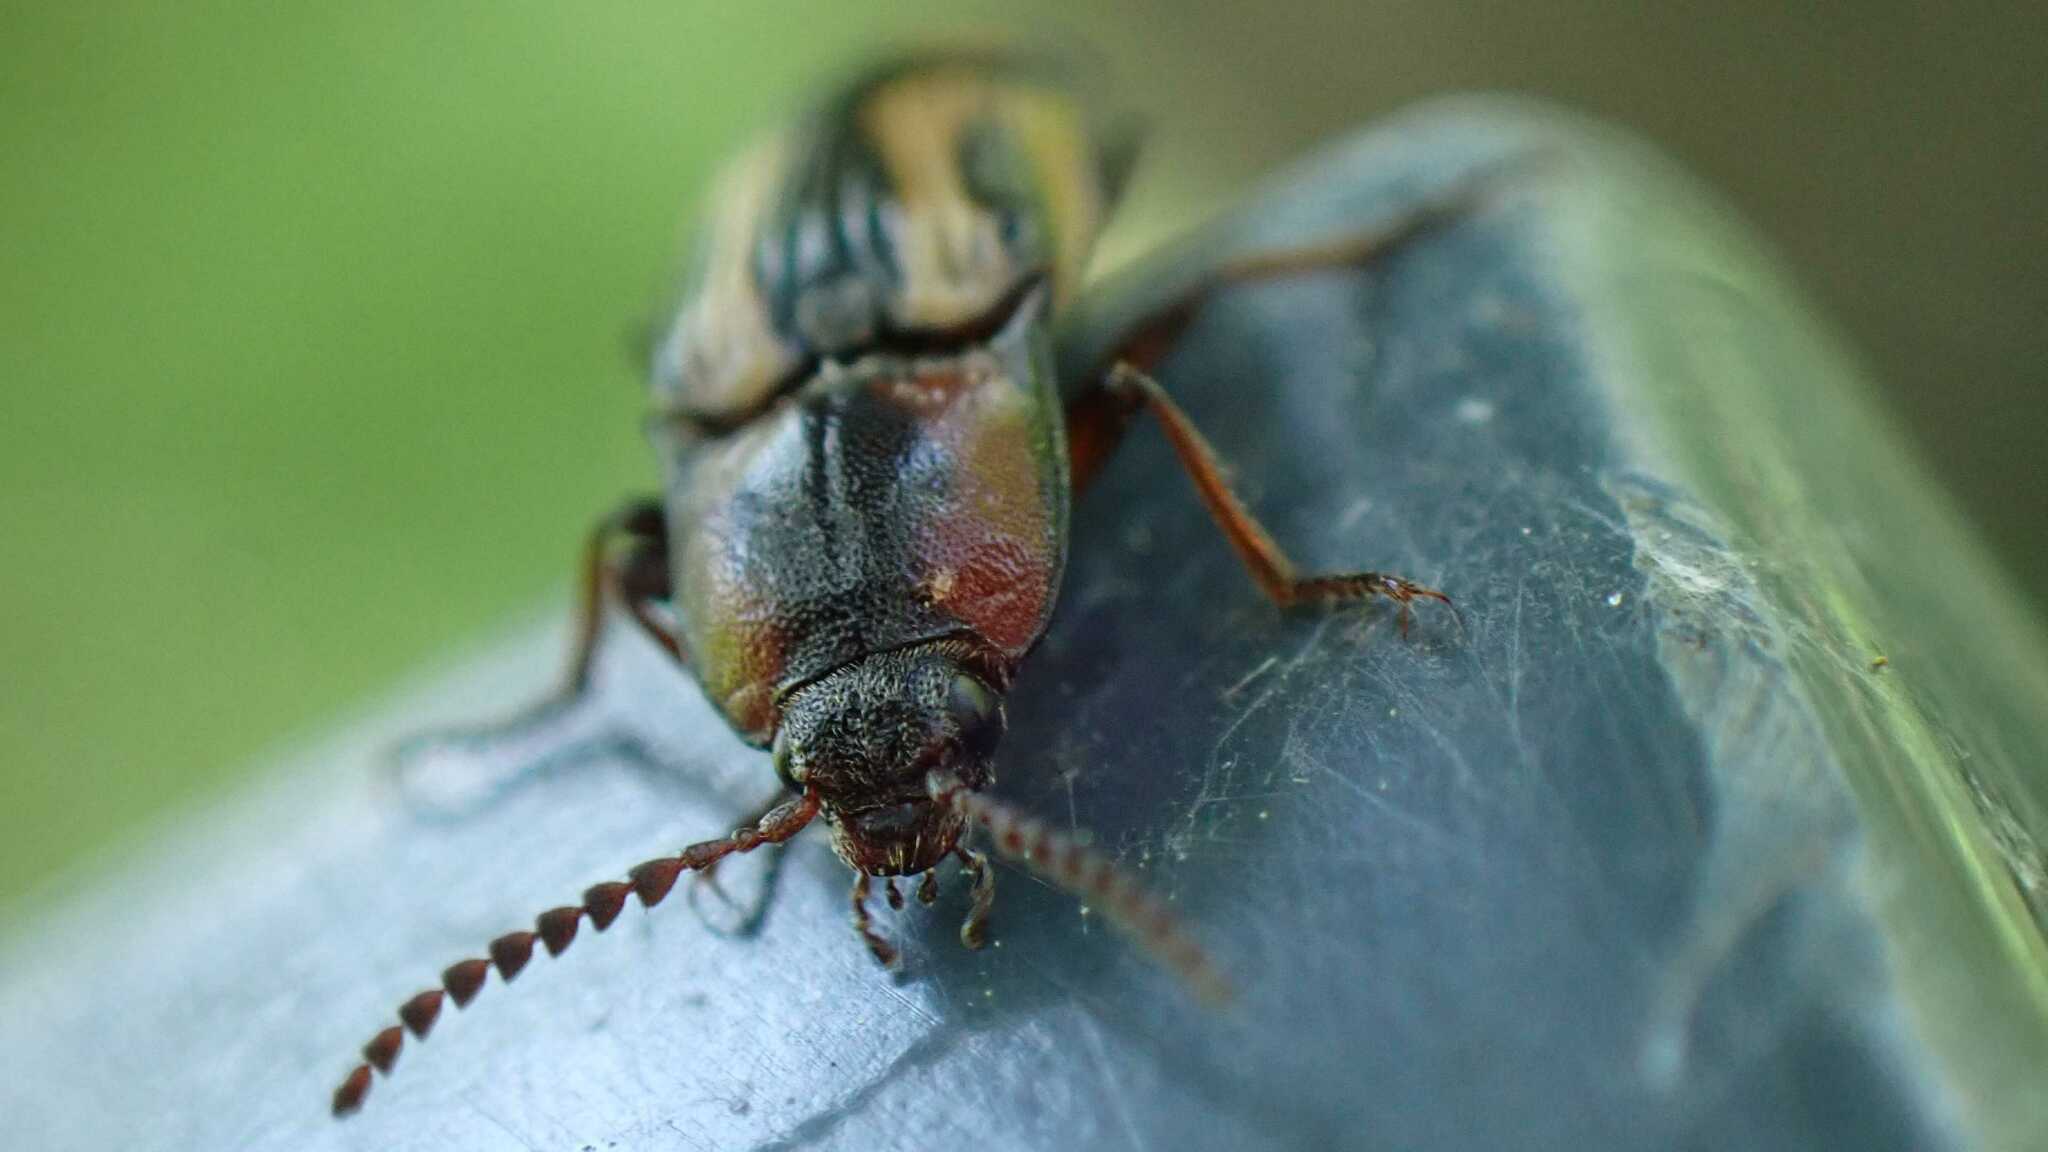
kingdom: Animalia
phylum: Arthropoda
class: Insecta
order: Coleoptera
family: Elateridae
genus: Selatosomus
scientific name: Selatosomus cruciatus
